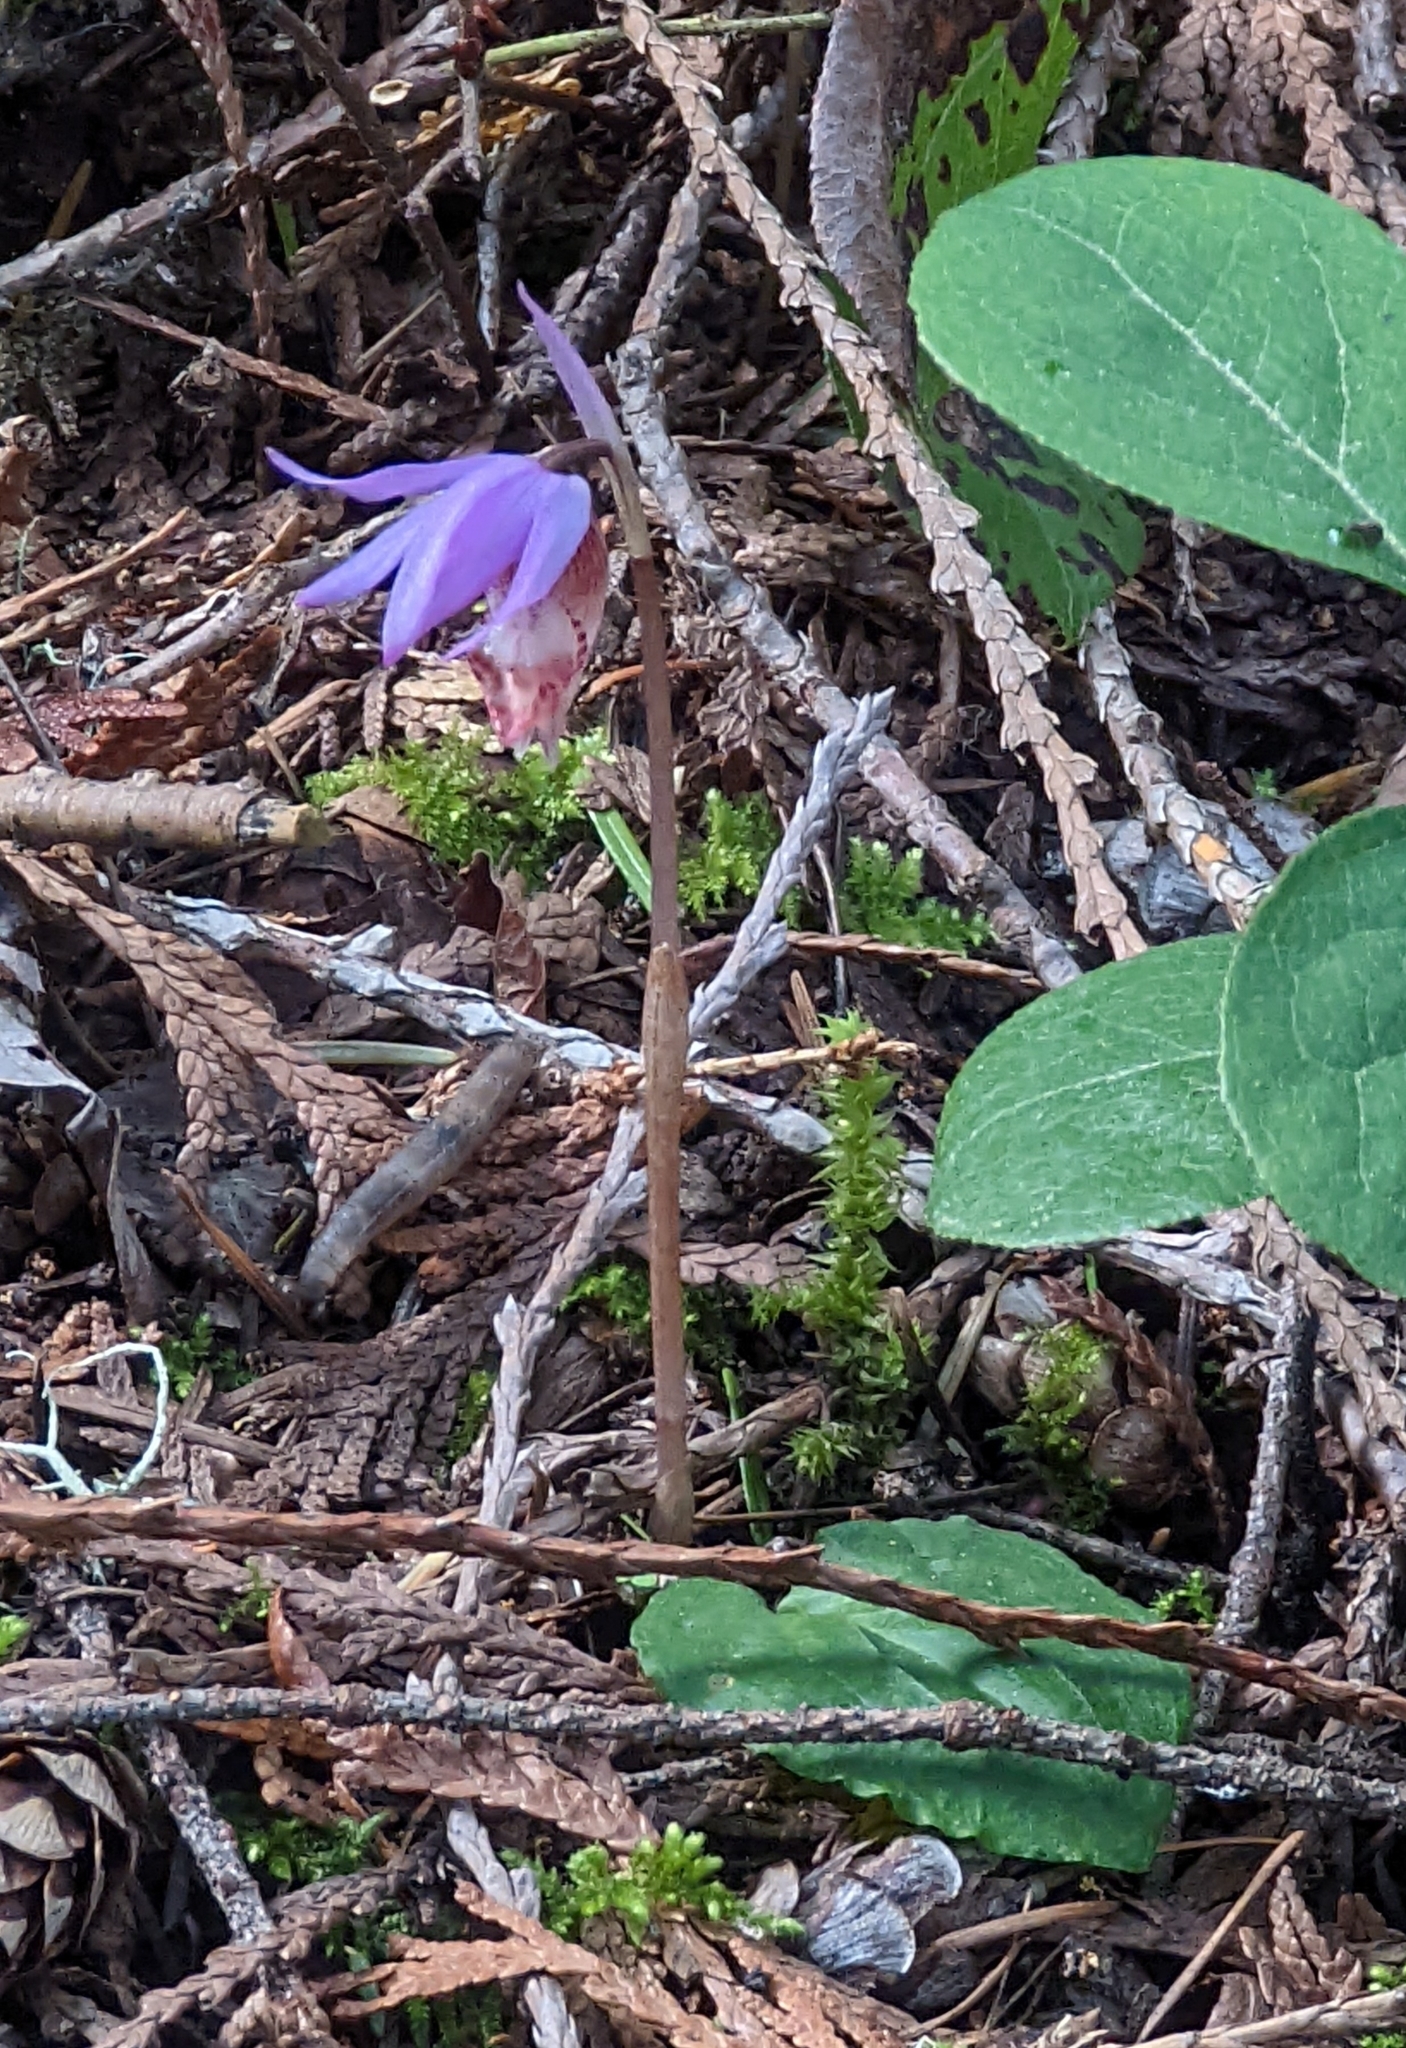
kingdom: Plantae
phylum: Tracheophyta
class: Liliopsida
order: Asparagales
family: Orchidaceae
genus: Calypso
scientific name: Calypso bulbosa
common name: Calypso
